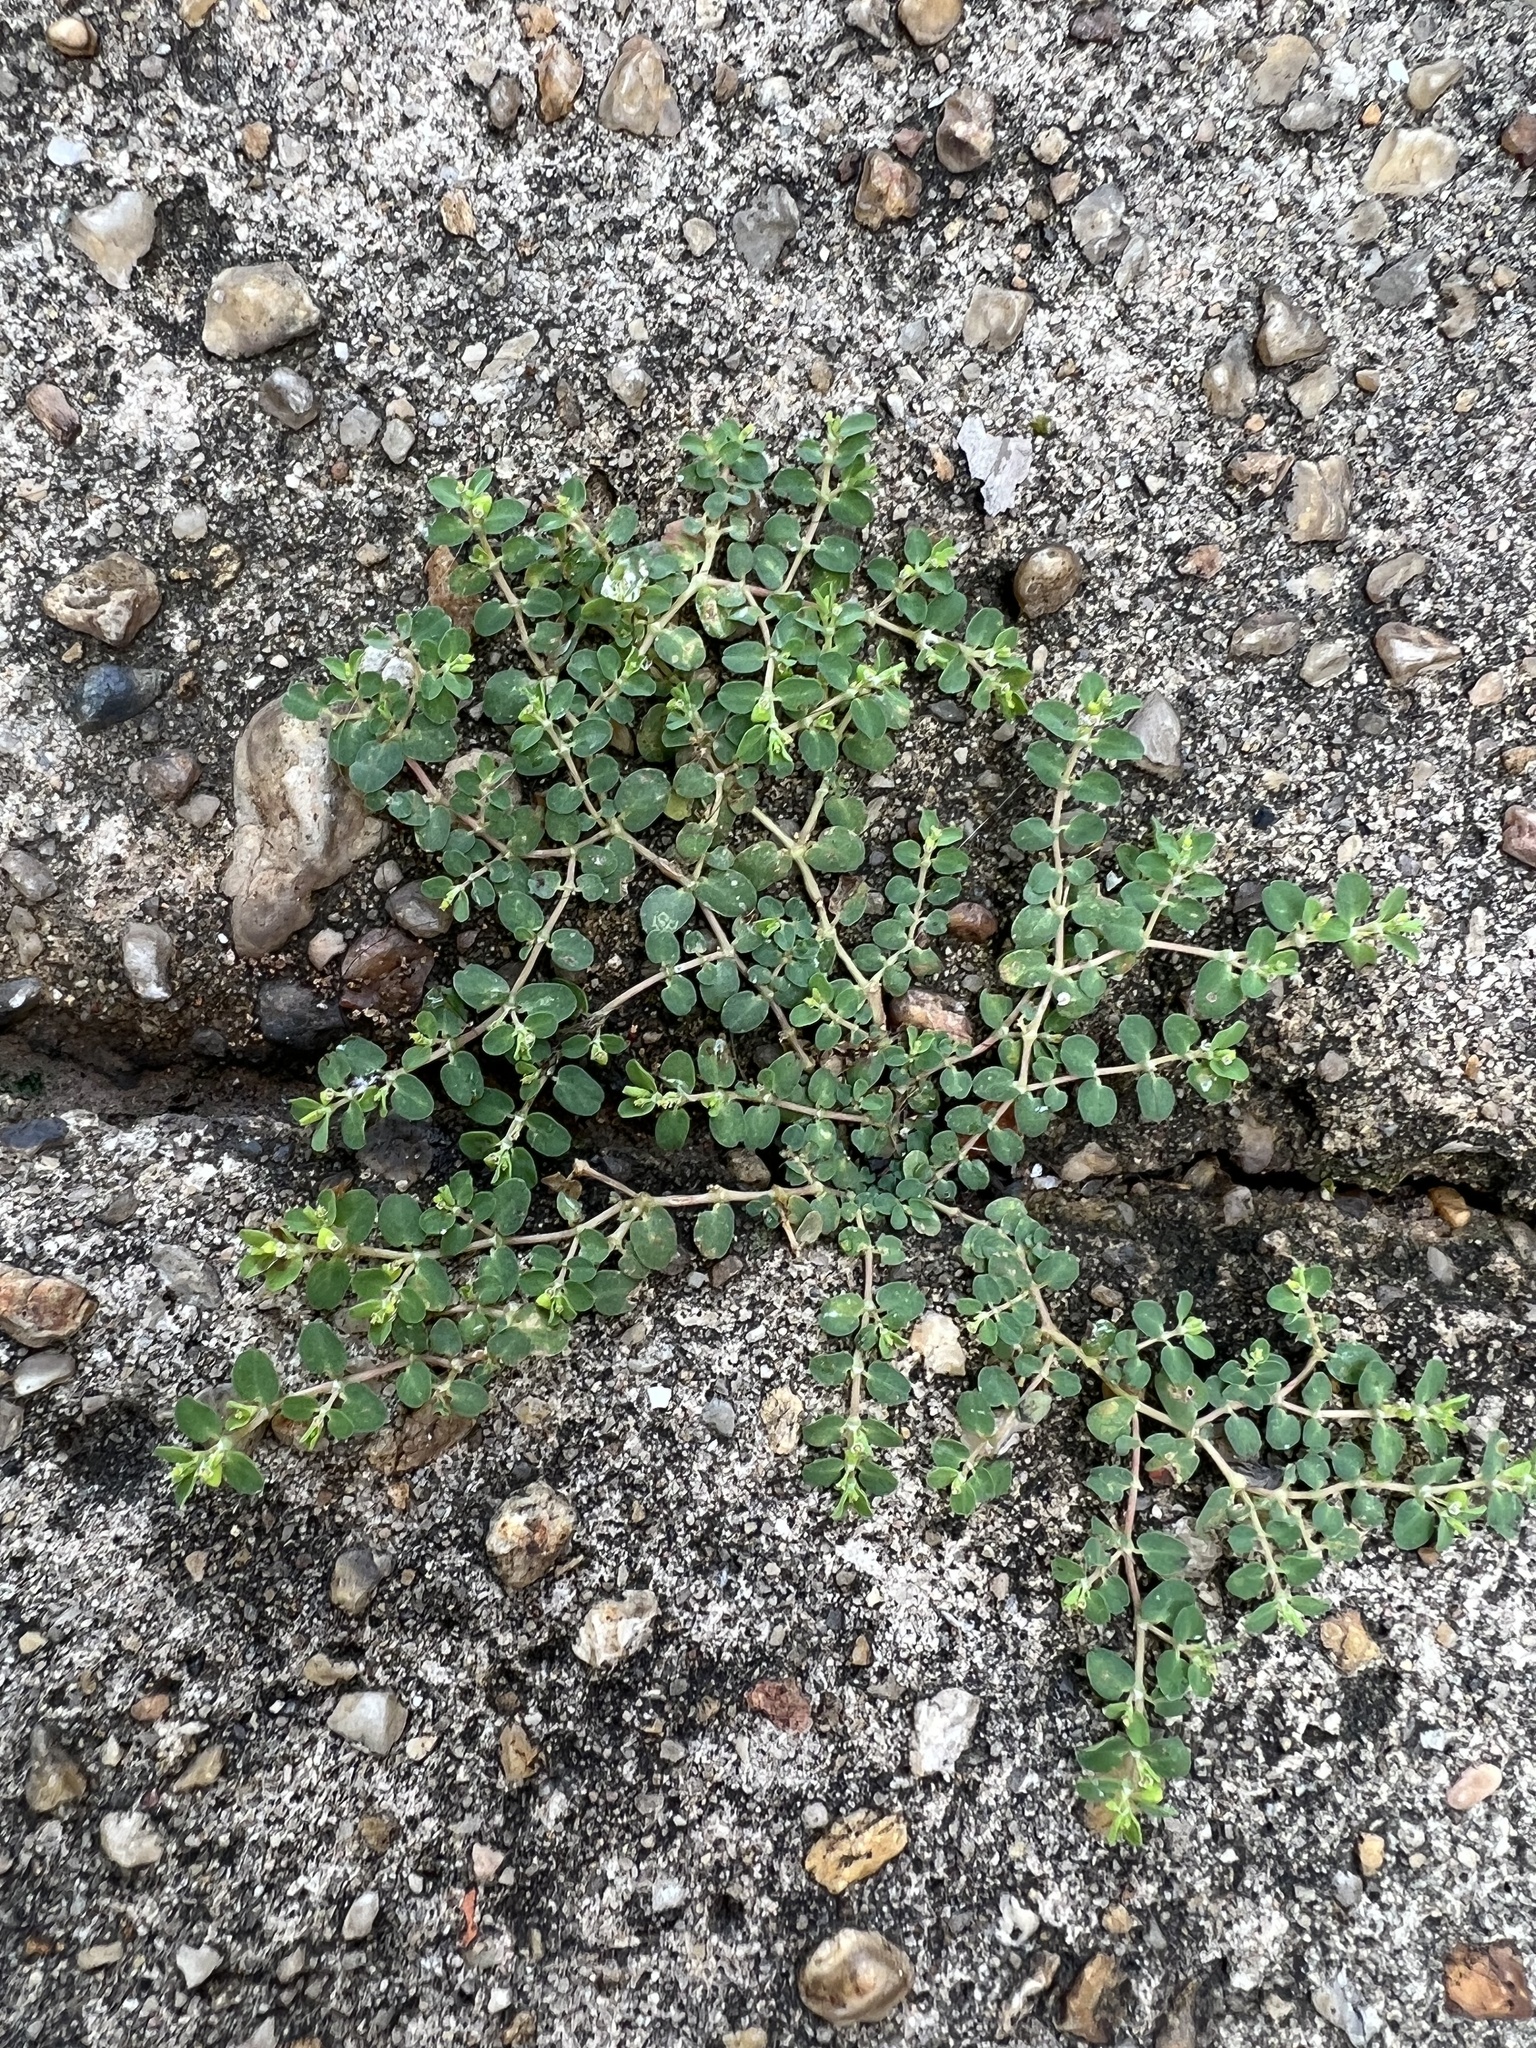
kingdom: Plantae
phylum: Tracheophyta
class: Magnoliopsida
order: Malpighiales
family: Euphorbiaceae
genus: Euphorbia
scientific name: Euphorbia serpens
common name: Matted sandmat
